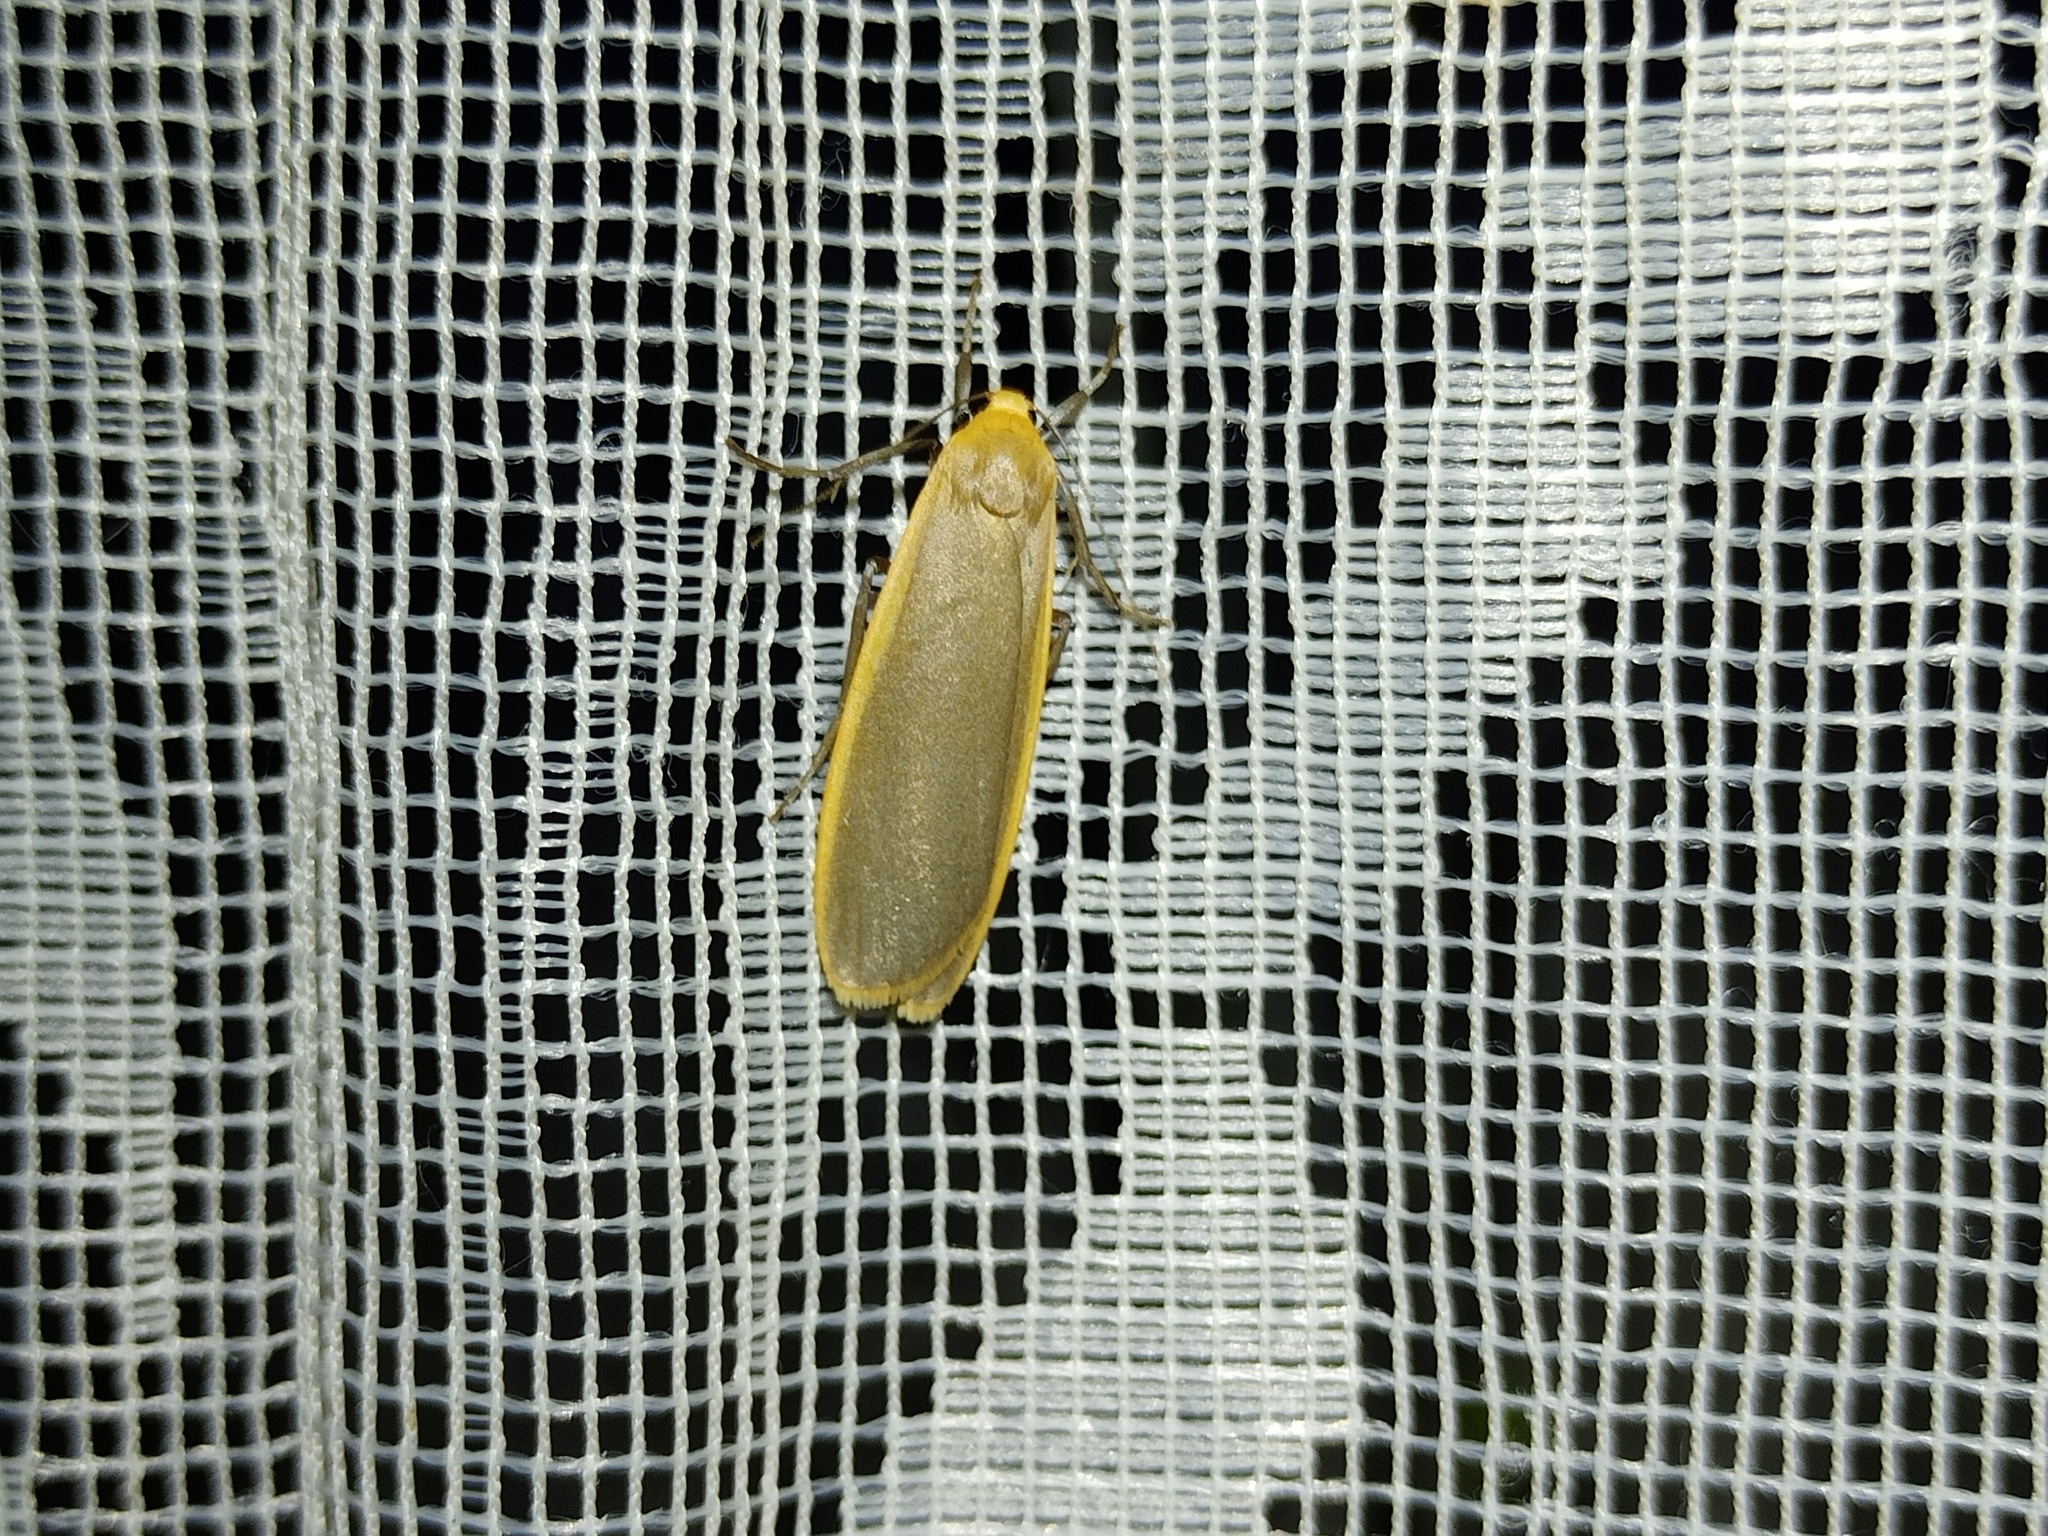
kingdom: Animalia
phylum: Arthropoda
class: Insecta
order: Lepidoptera
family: Erebidae
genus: Katha
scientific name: Katha depressa
